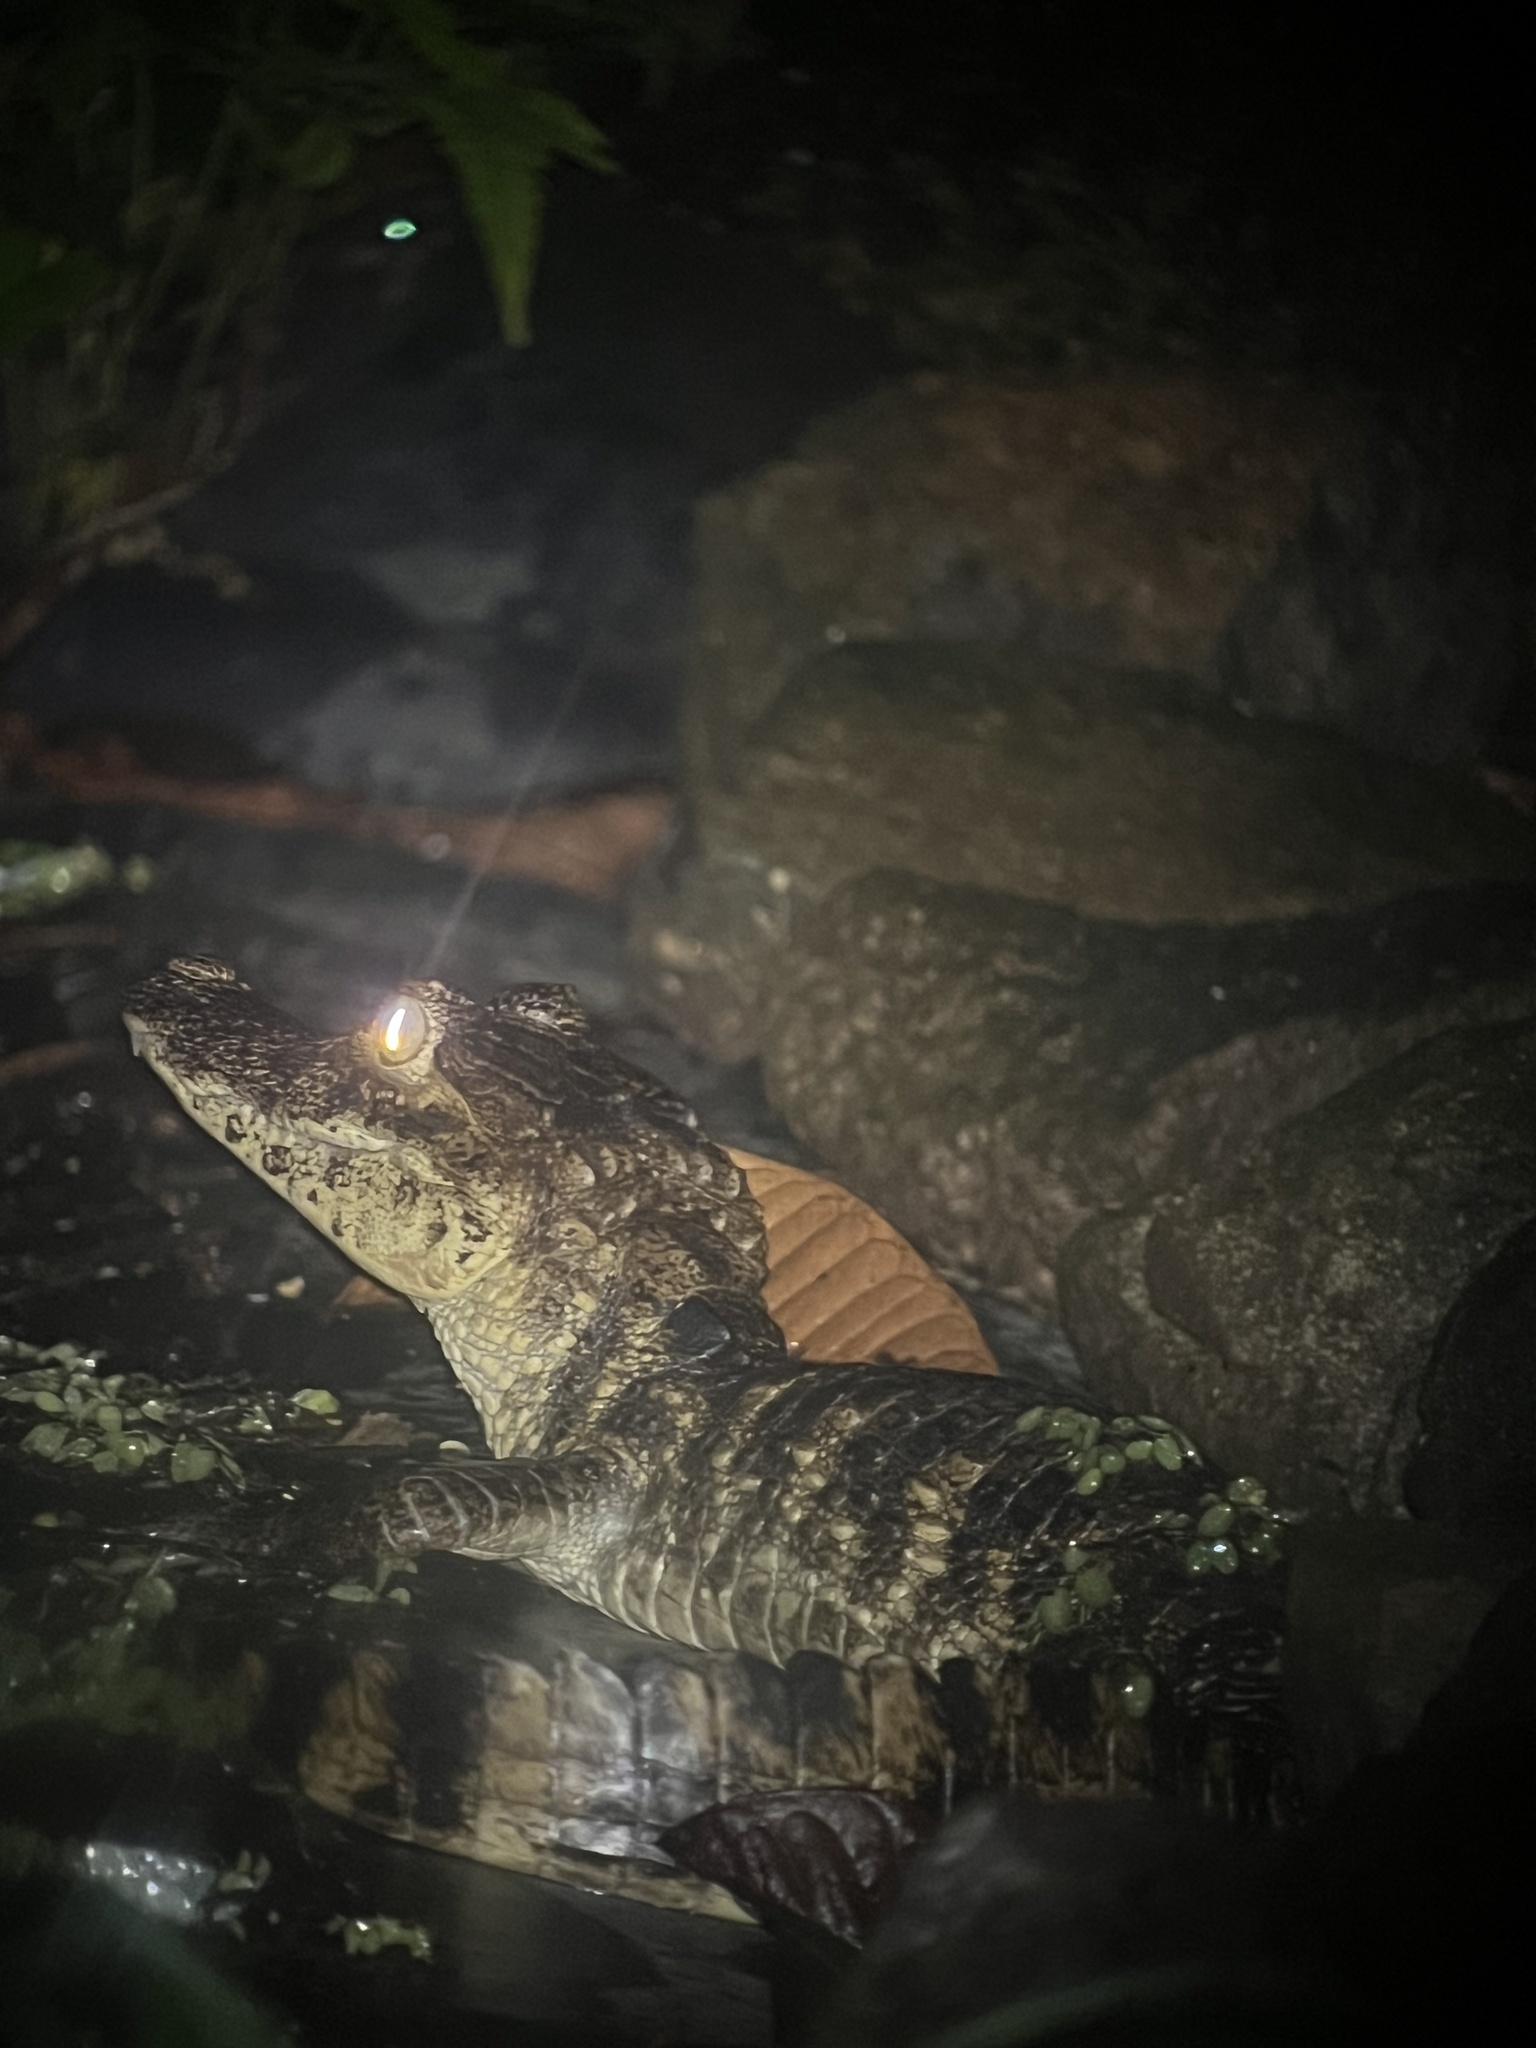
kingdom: Animalia
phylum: Chordata
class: Crocodylia
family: Alligatoridae
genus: Caiman
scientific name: Caiman crocodilus
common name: Common caiman
